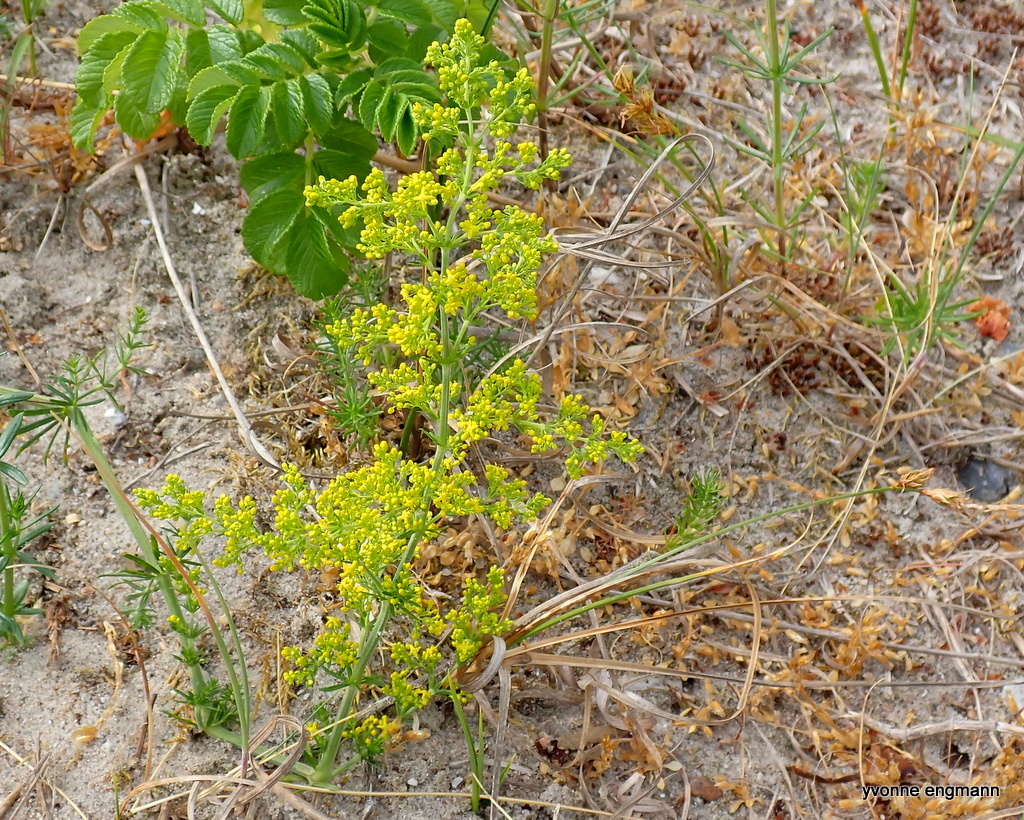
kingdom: Plantae
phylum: Tracheophyta
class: Magnoliopsida
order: Gentianales
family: Rubiaceae
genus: Galium
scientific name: Galium verum
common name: Lady's bedstraw
